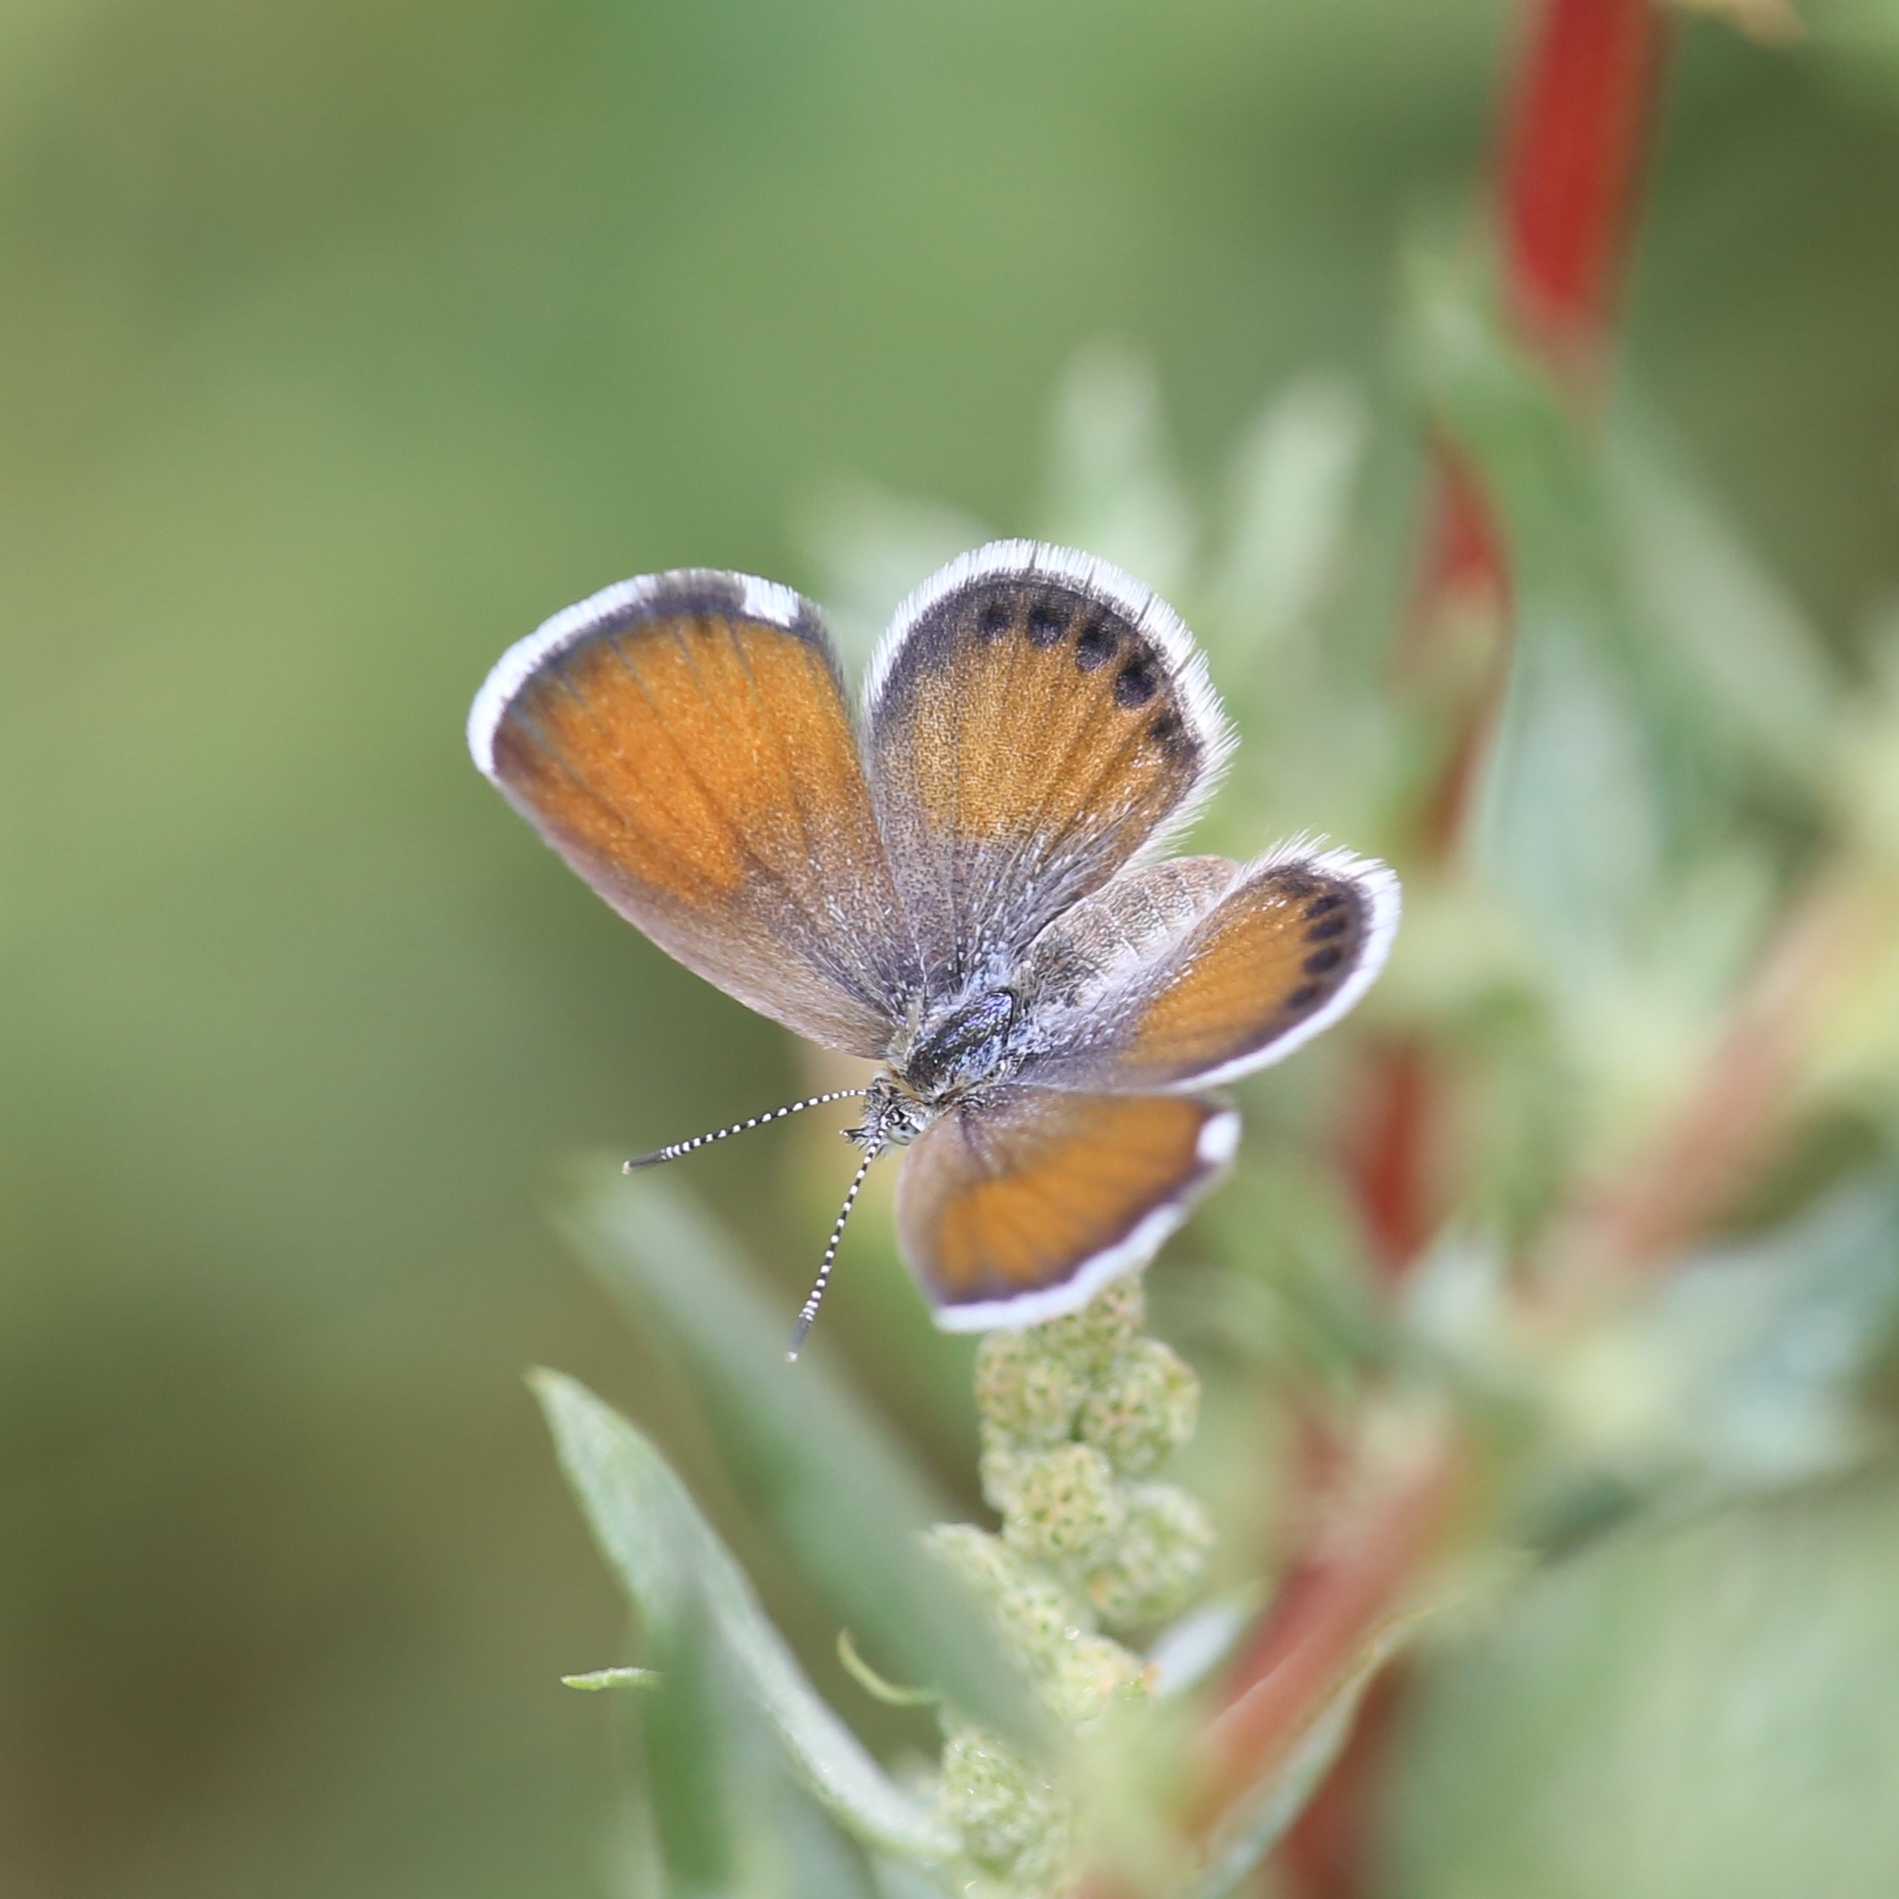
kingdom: Animalia
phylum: Arthropoda
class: Insecta
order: Lepidoptera
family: Lycaenidae
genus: Brephidium
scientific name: Brephidium exilis
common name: Pygmy blue
